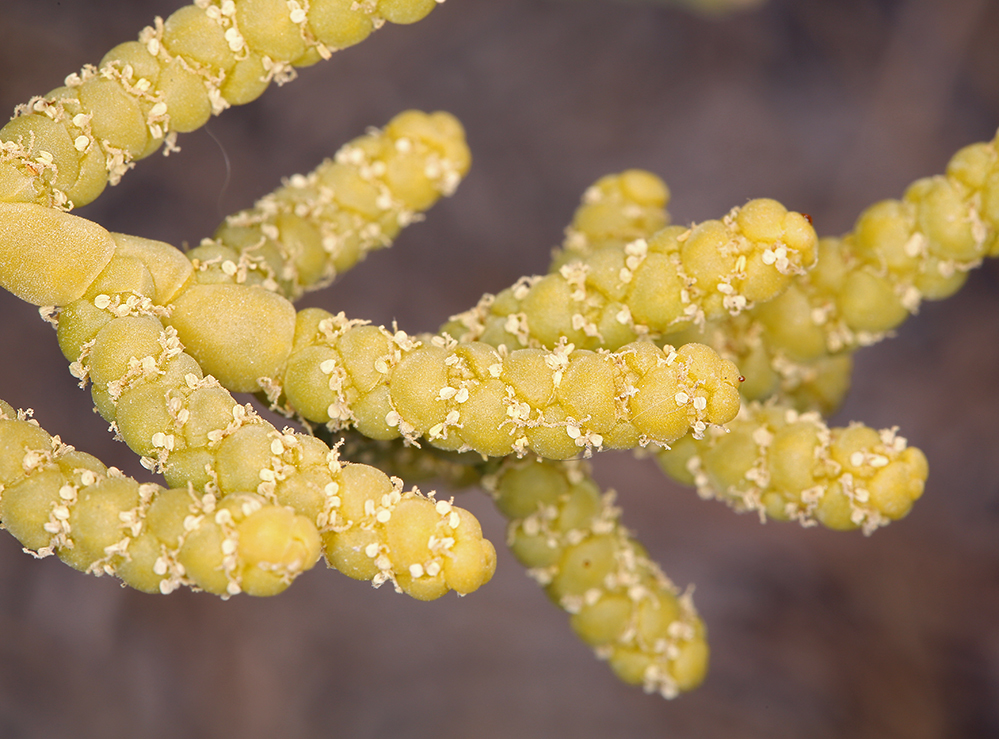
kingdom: Plantae
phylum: Tracheophyta
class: Magnoliopsida
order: Caryophyllales
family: Amaranthaceae
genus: Allenrolfea
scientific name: Allenrolfea occidentalis
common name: Iodine-bush
